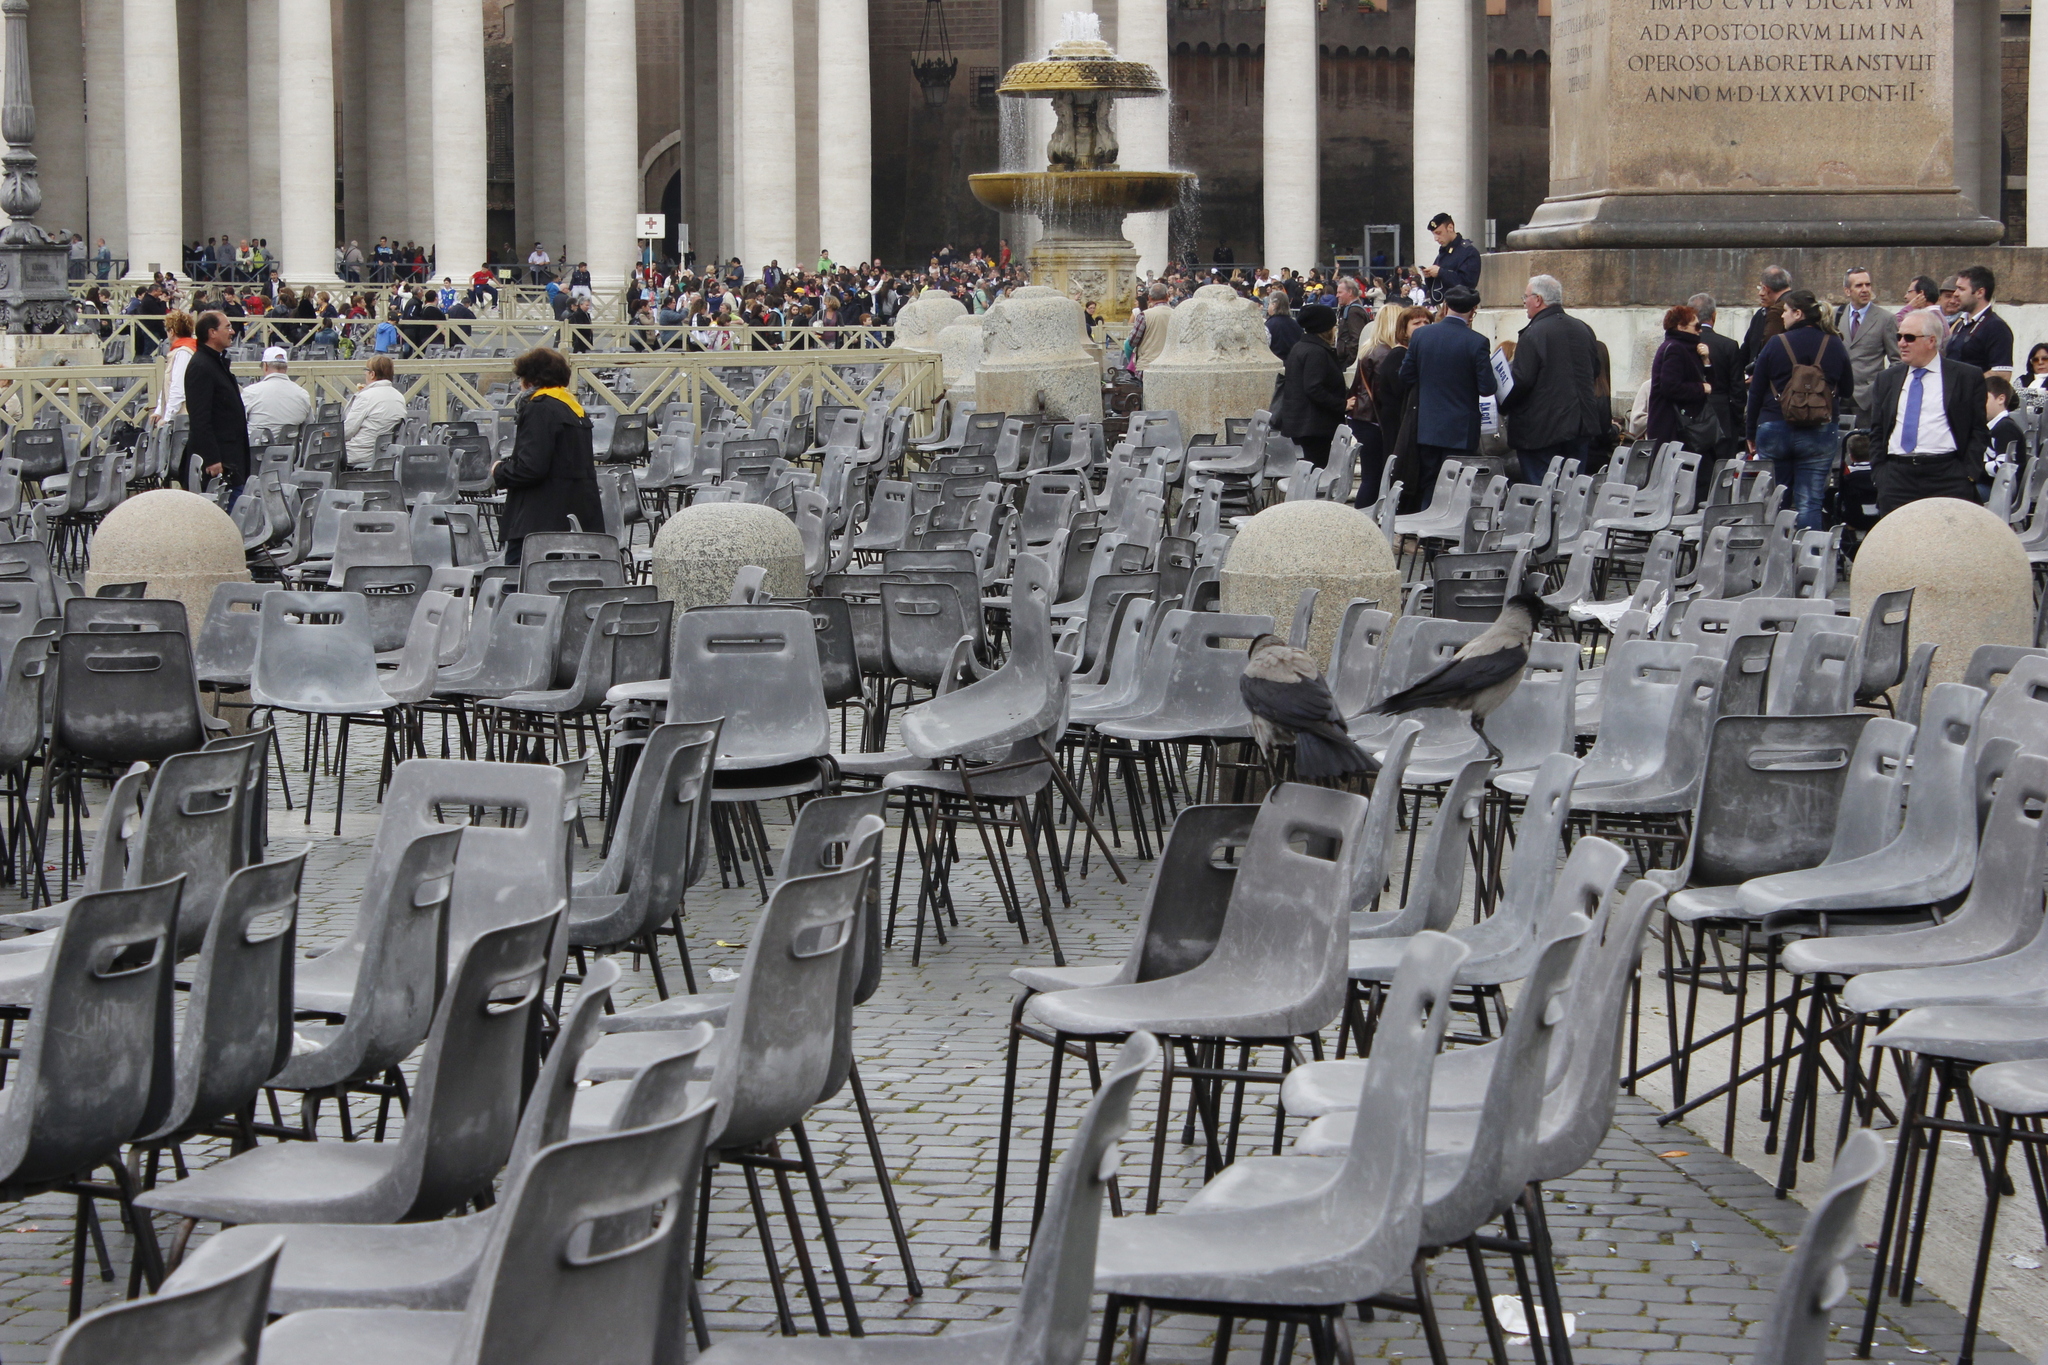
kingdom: Animalia
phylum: Chordata
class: Aves
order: Passeriformes
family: Corvidae
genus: Corvus
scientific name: Corvus cornix
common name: Hooded crow
